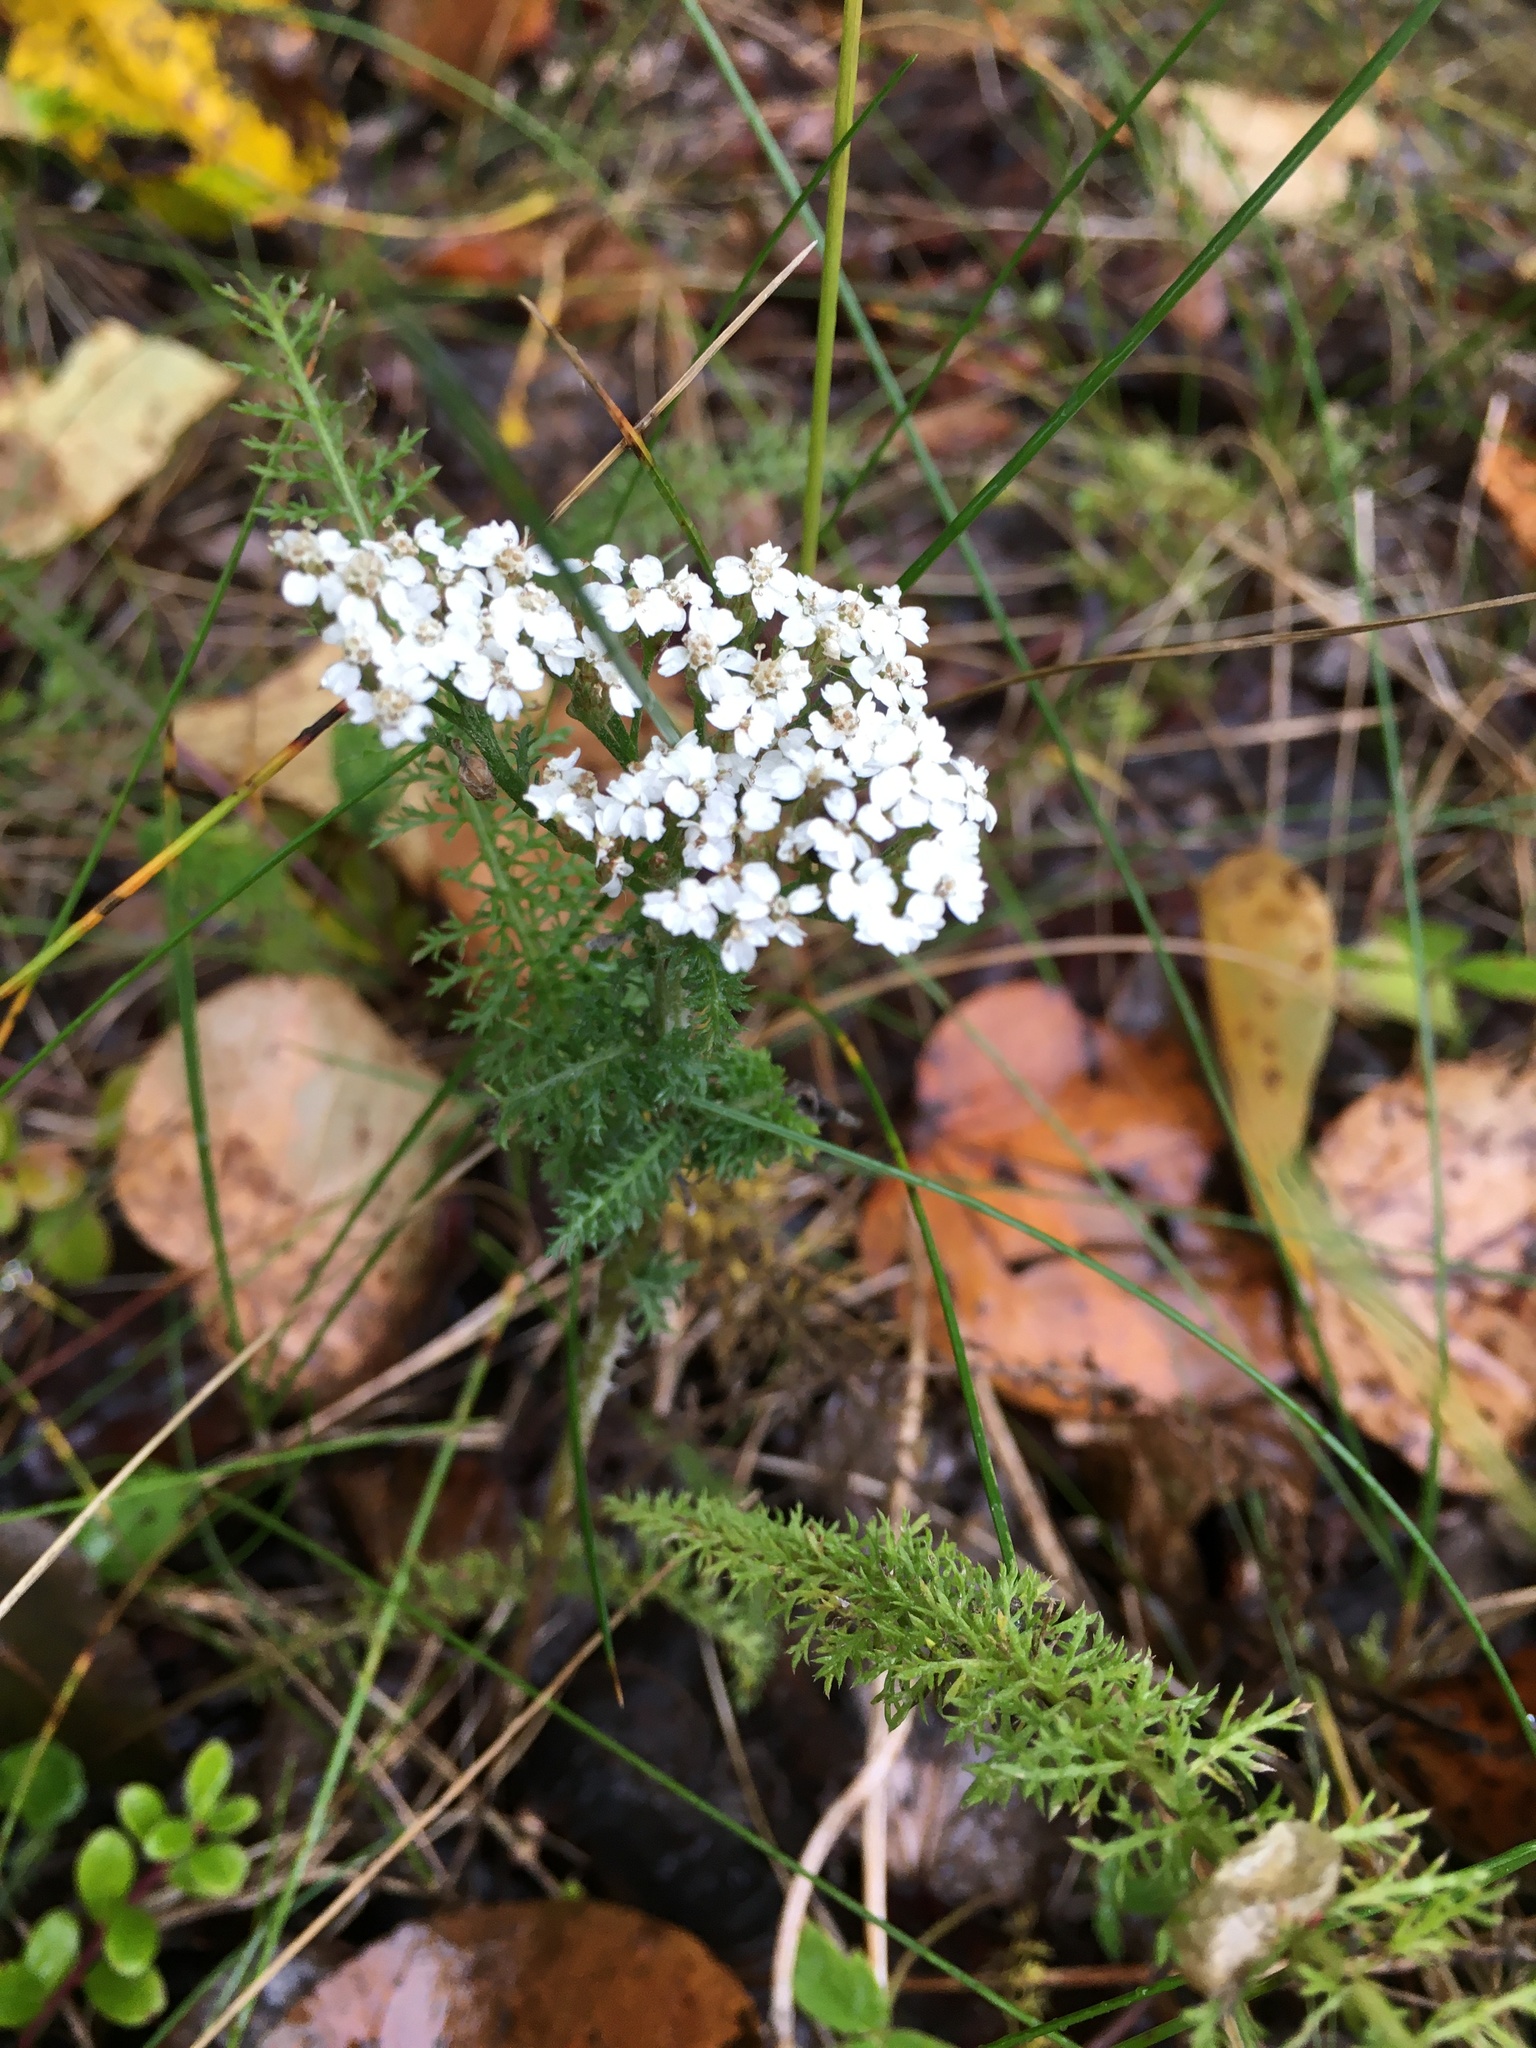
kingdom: Plantae
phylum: Tracheophyta
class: Magnoliopsida
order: Asterales
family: Asteraceae
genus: Achillea
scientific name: Achillea millefolium
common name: Yarrow
